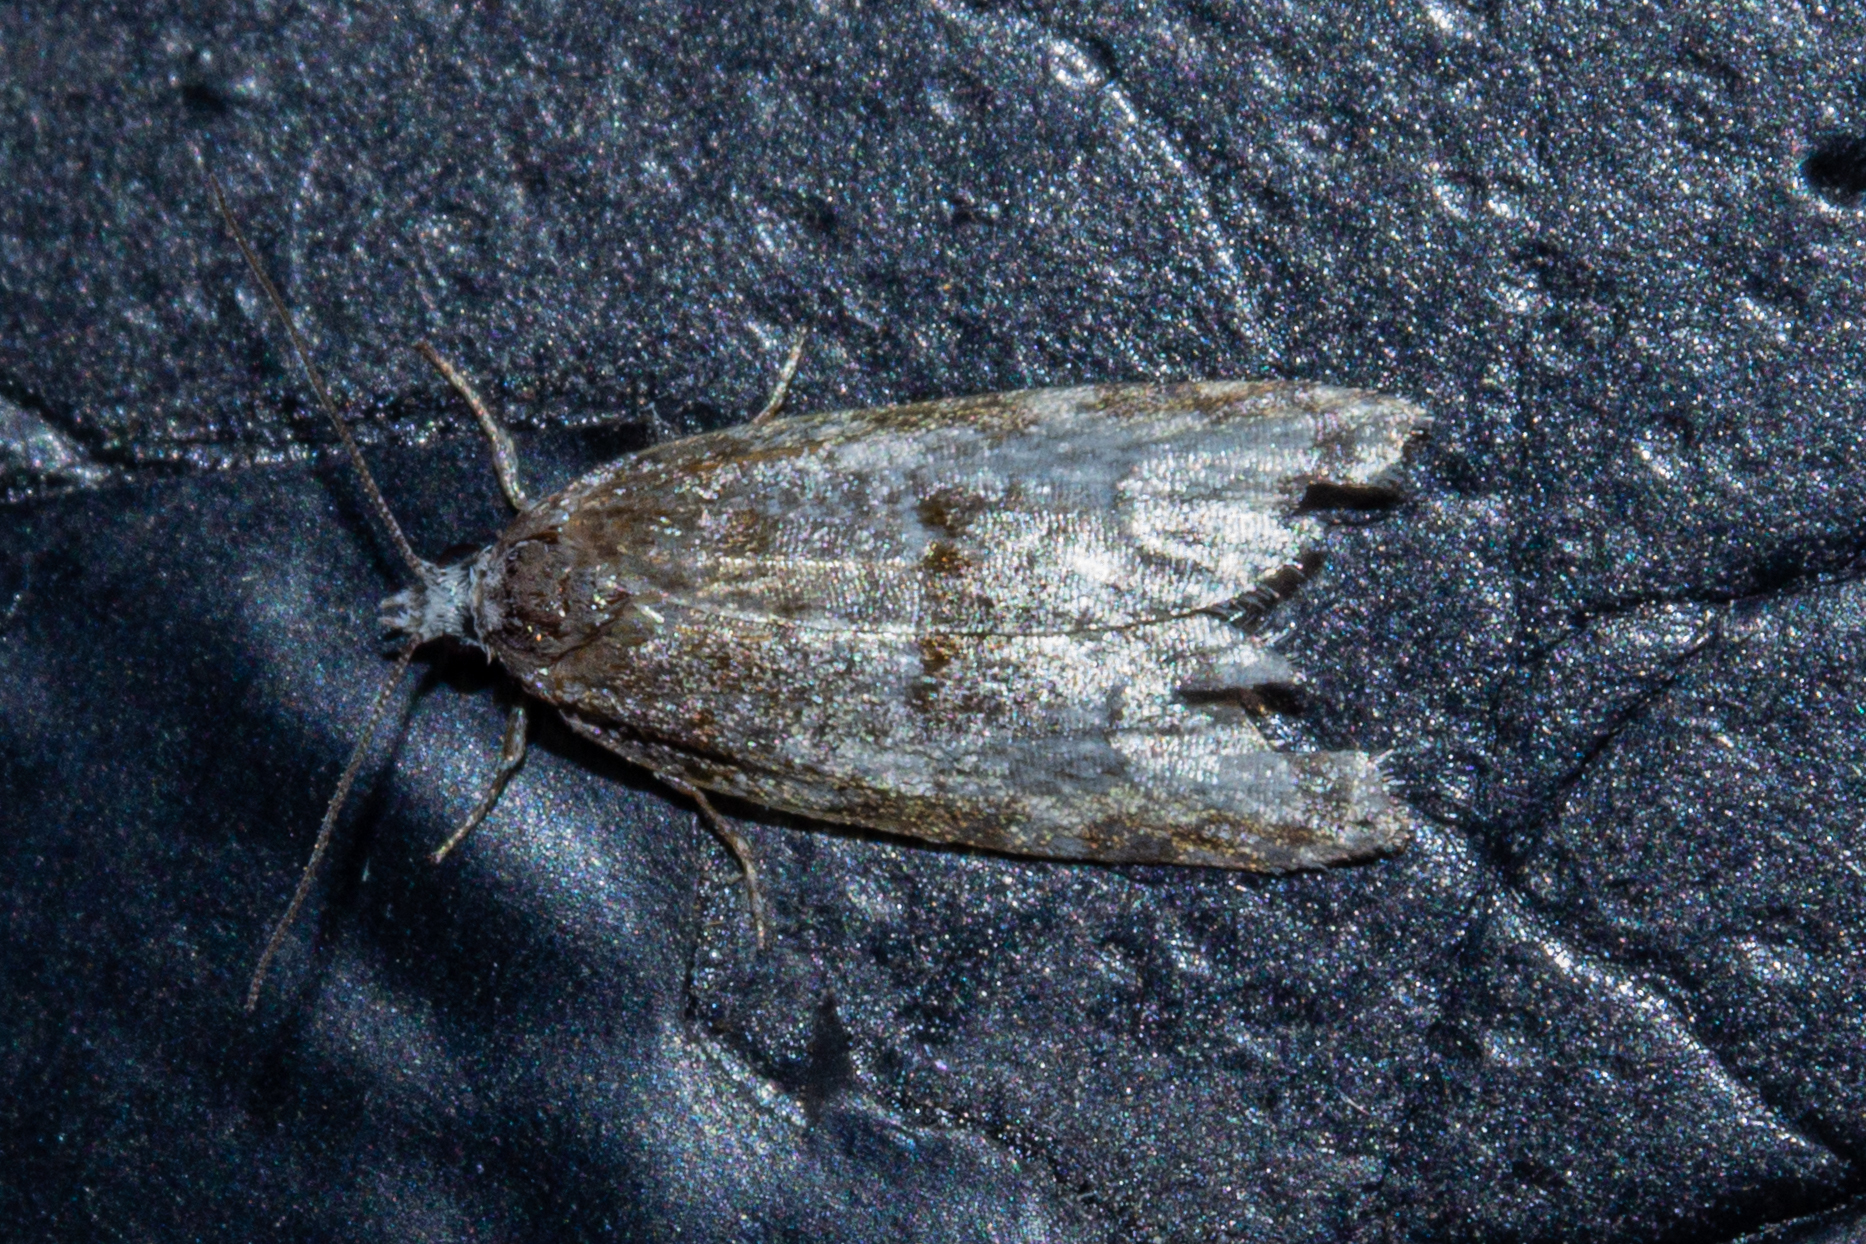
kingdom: Animalia
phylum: Arthropoda
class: Insecta
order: Lepidoptera
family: Tortricidae
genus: Prothelymna
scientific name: Prothelymna antiquana
